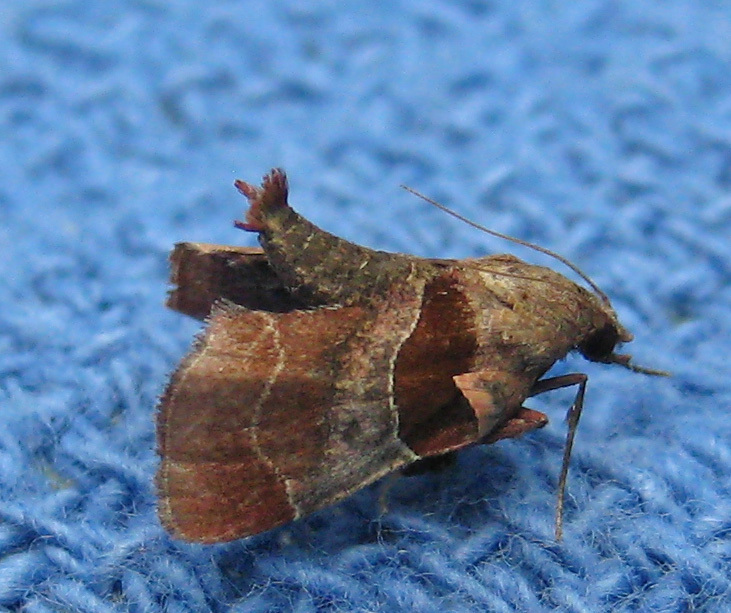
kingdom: Animalia
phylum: Arthropoda
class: Insecta
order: Lepidoptera
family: Pyralidae
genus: Tosale
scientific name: Tosale oviplagalis
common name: Dimorphic tosale moth
